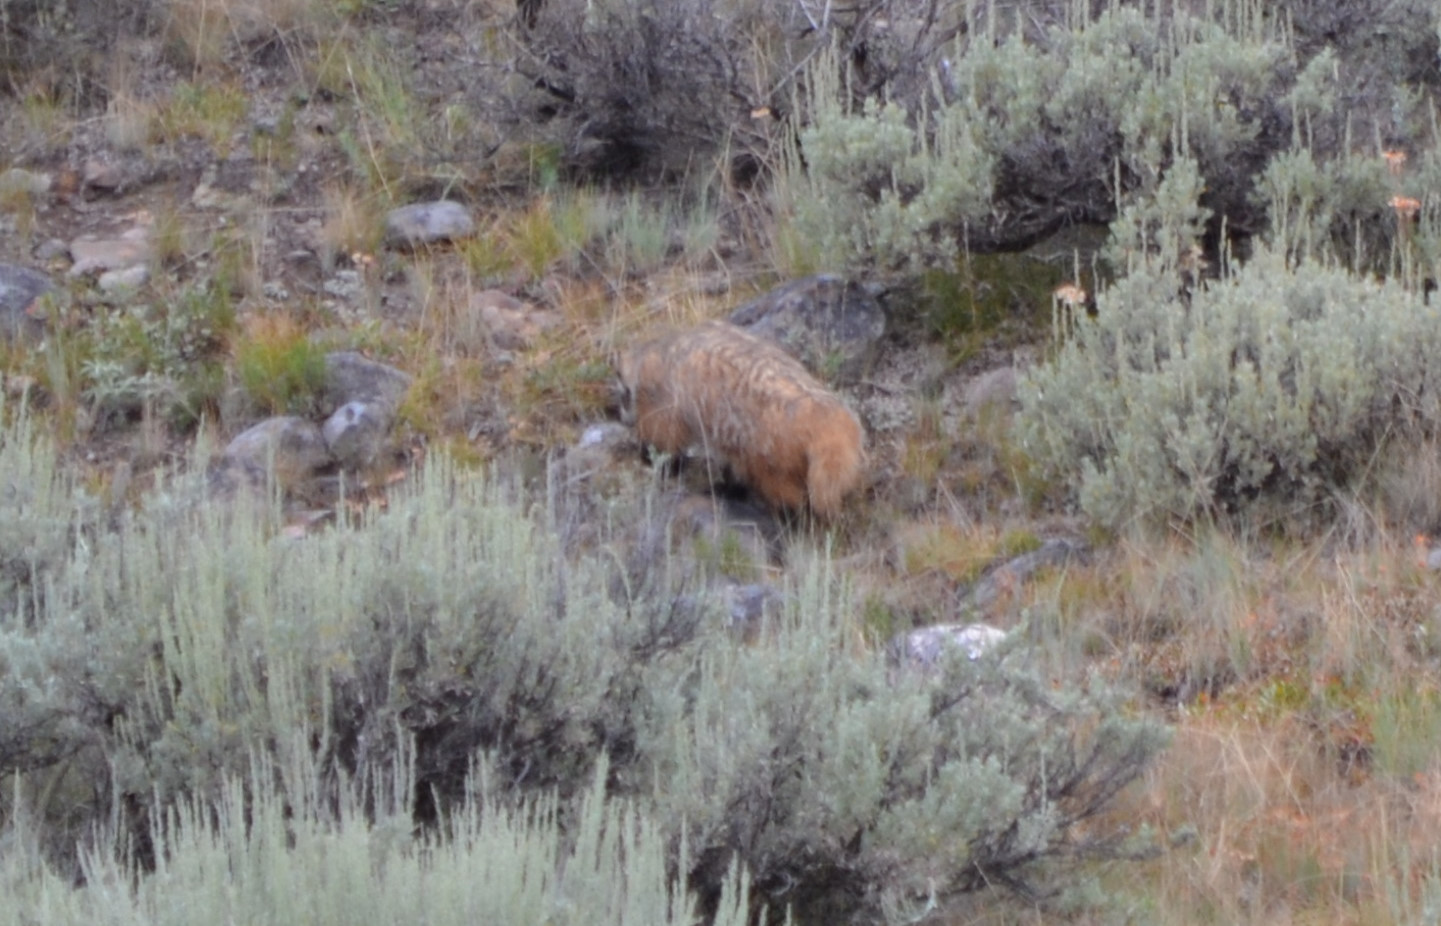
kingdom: Animalia
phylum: Chordata
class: Mammalia
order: Carnivora
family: Mustelidae
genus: Taxidea
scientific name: Taxidea taxus
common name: American badger
